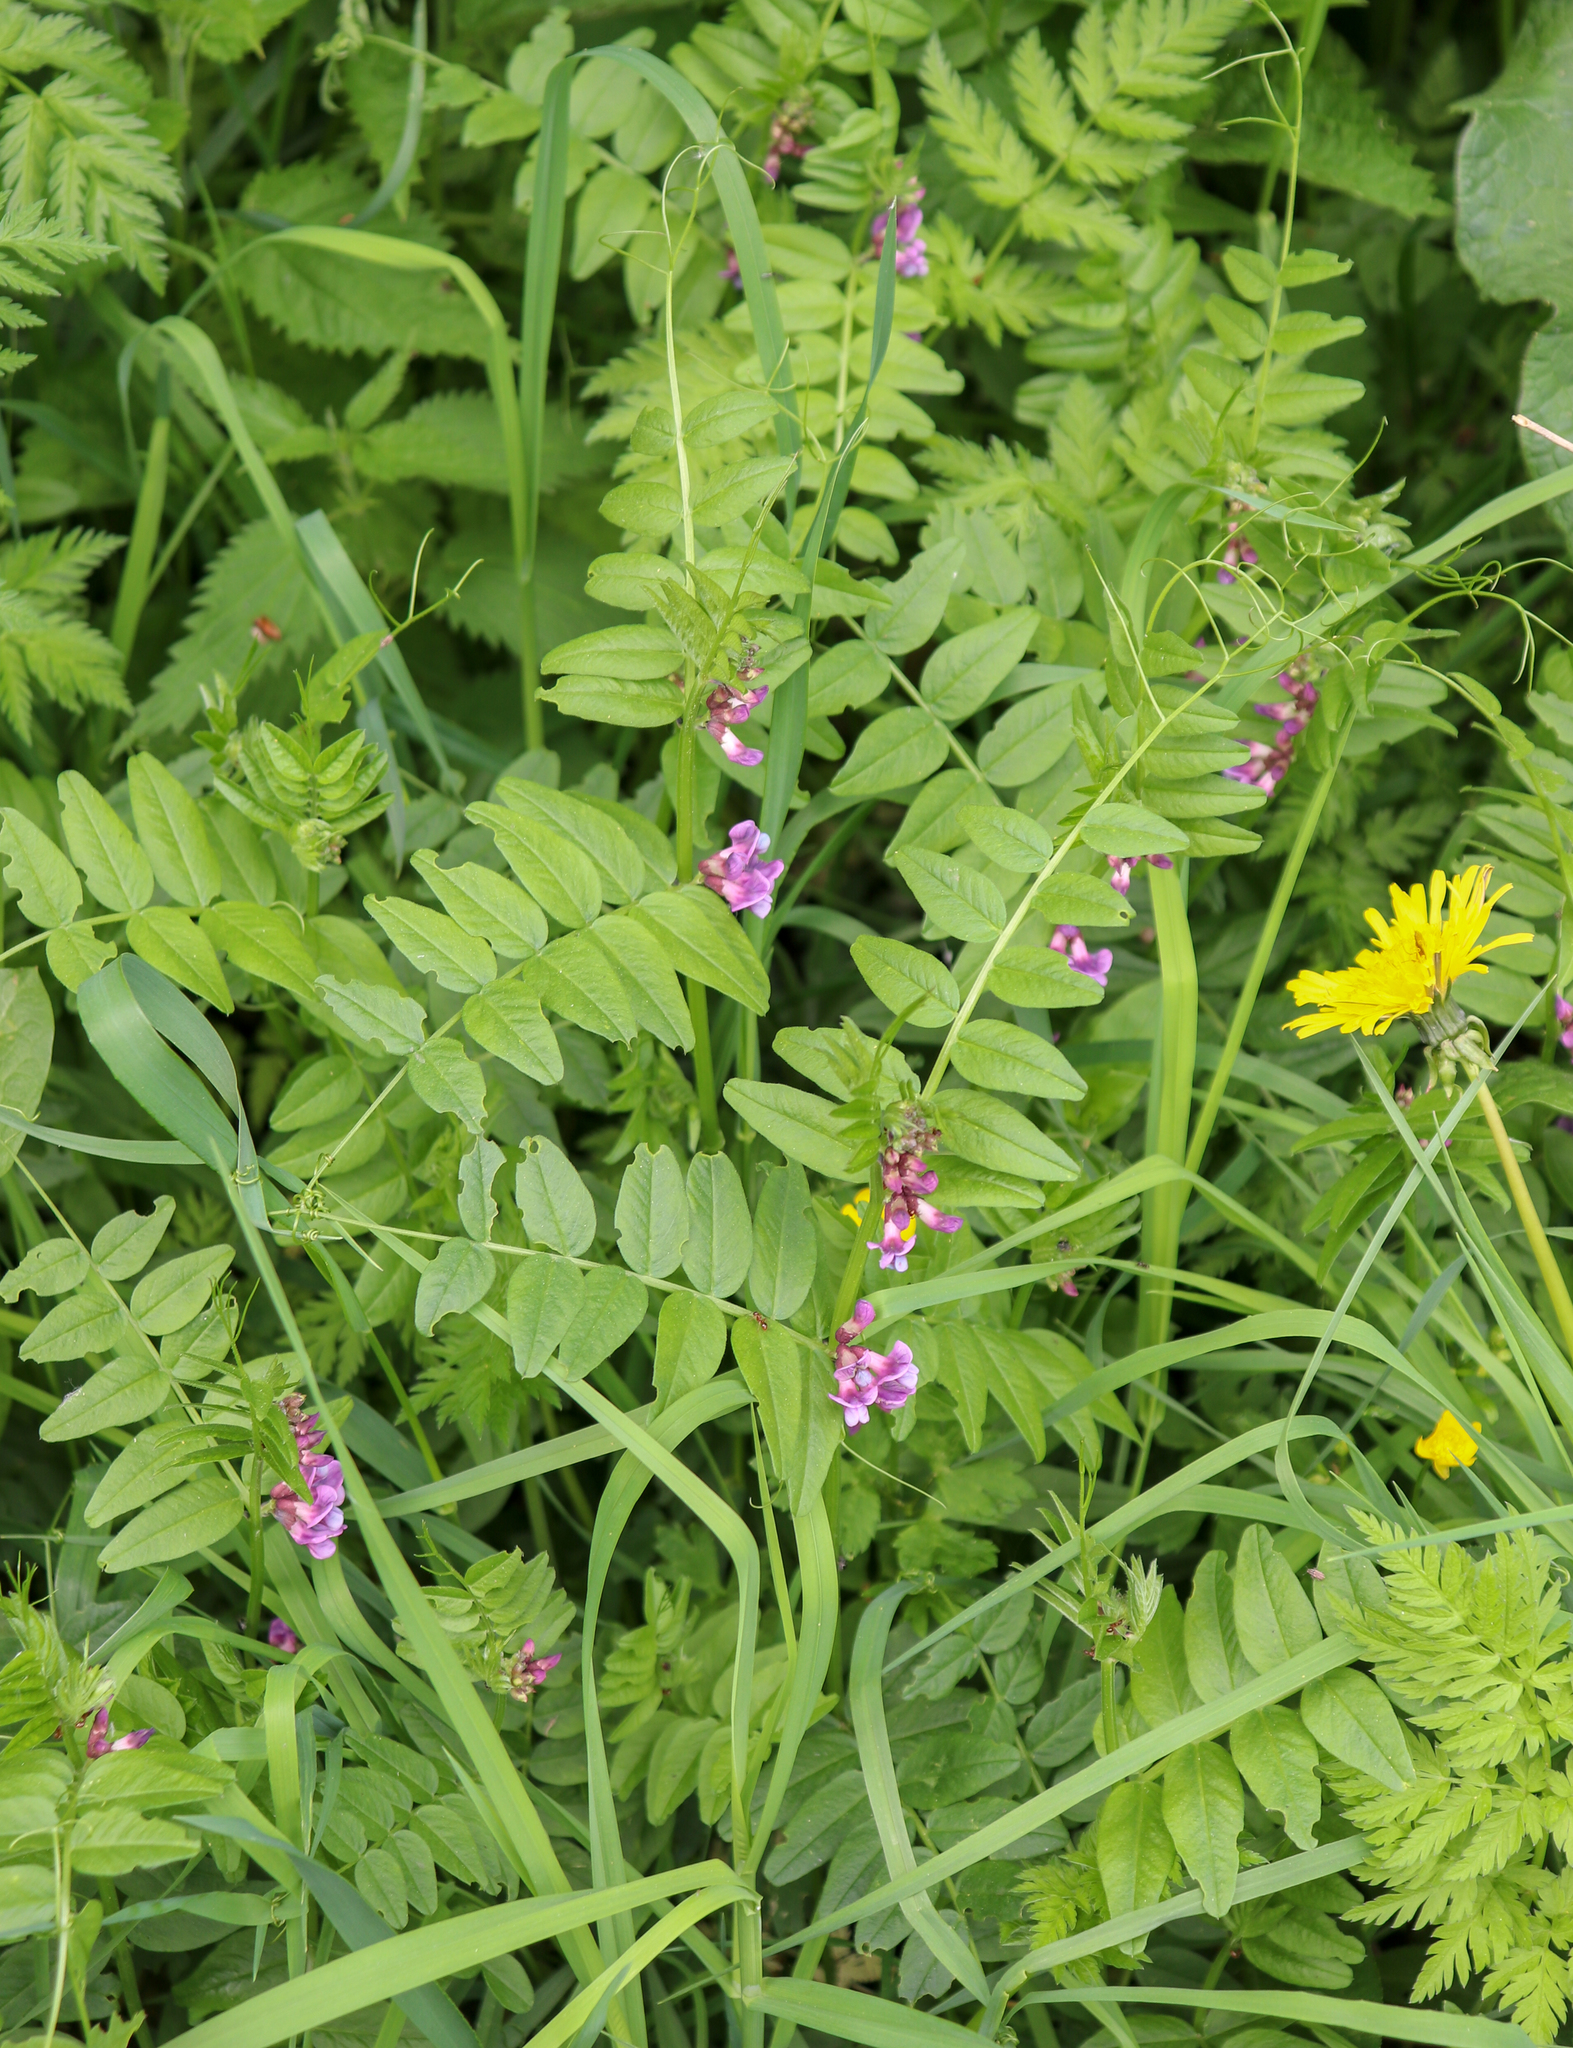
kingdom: Plantae
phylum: Tracheophyta
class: Magnoliopsida
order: Fabales
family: Fabaceae
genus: Vicia
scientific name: Vicia sepium
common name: Bush vetch
